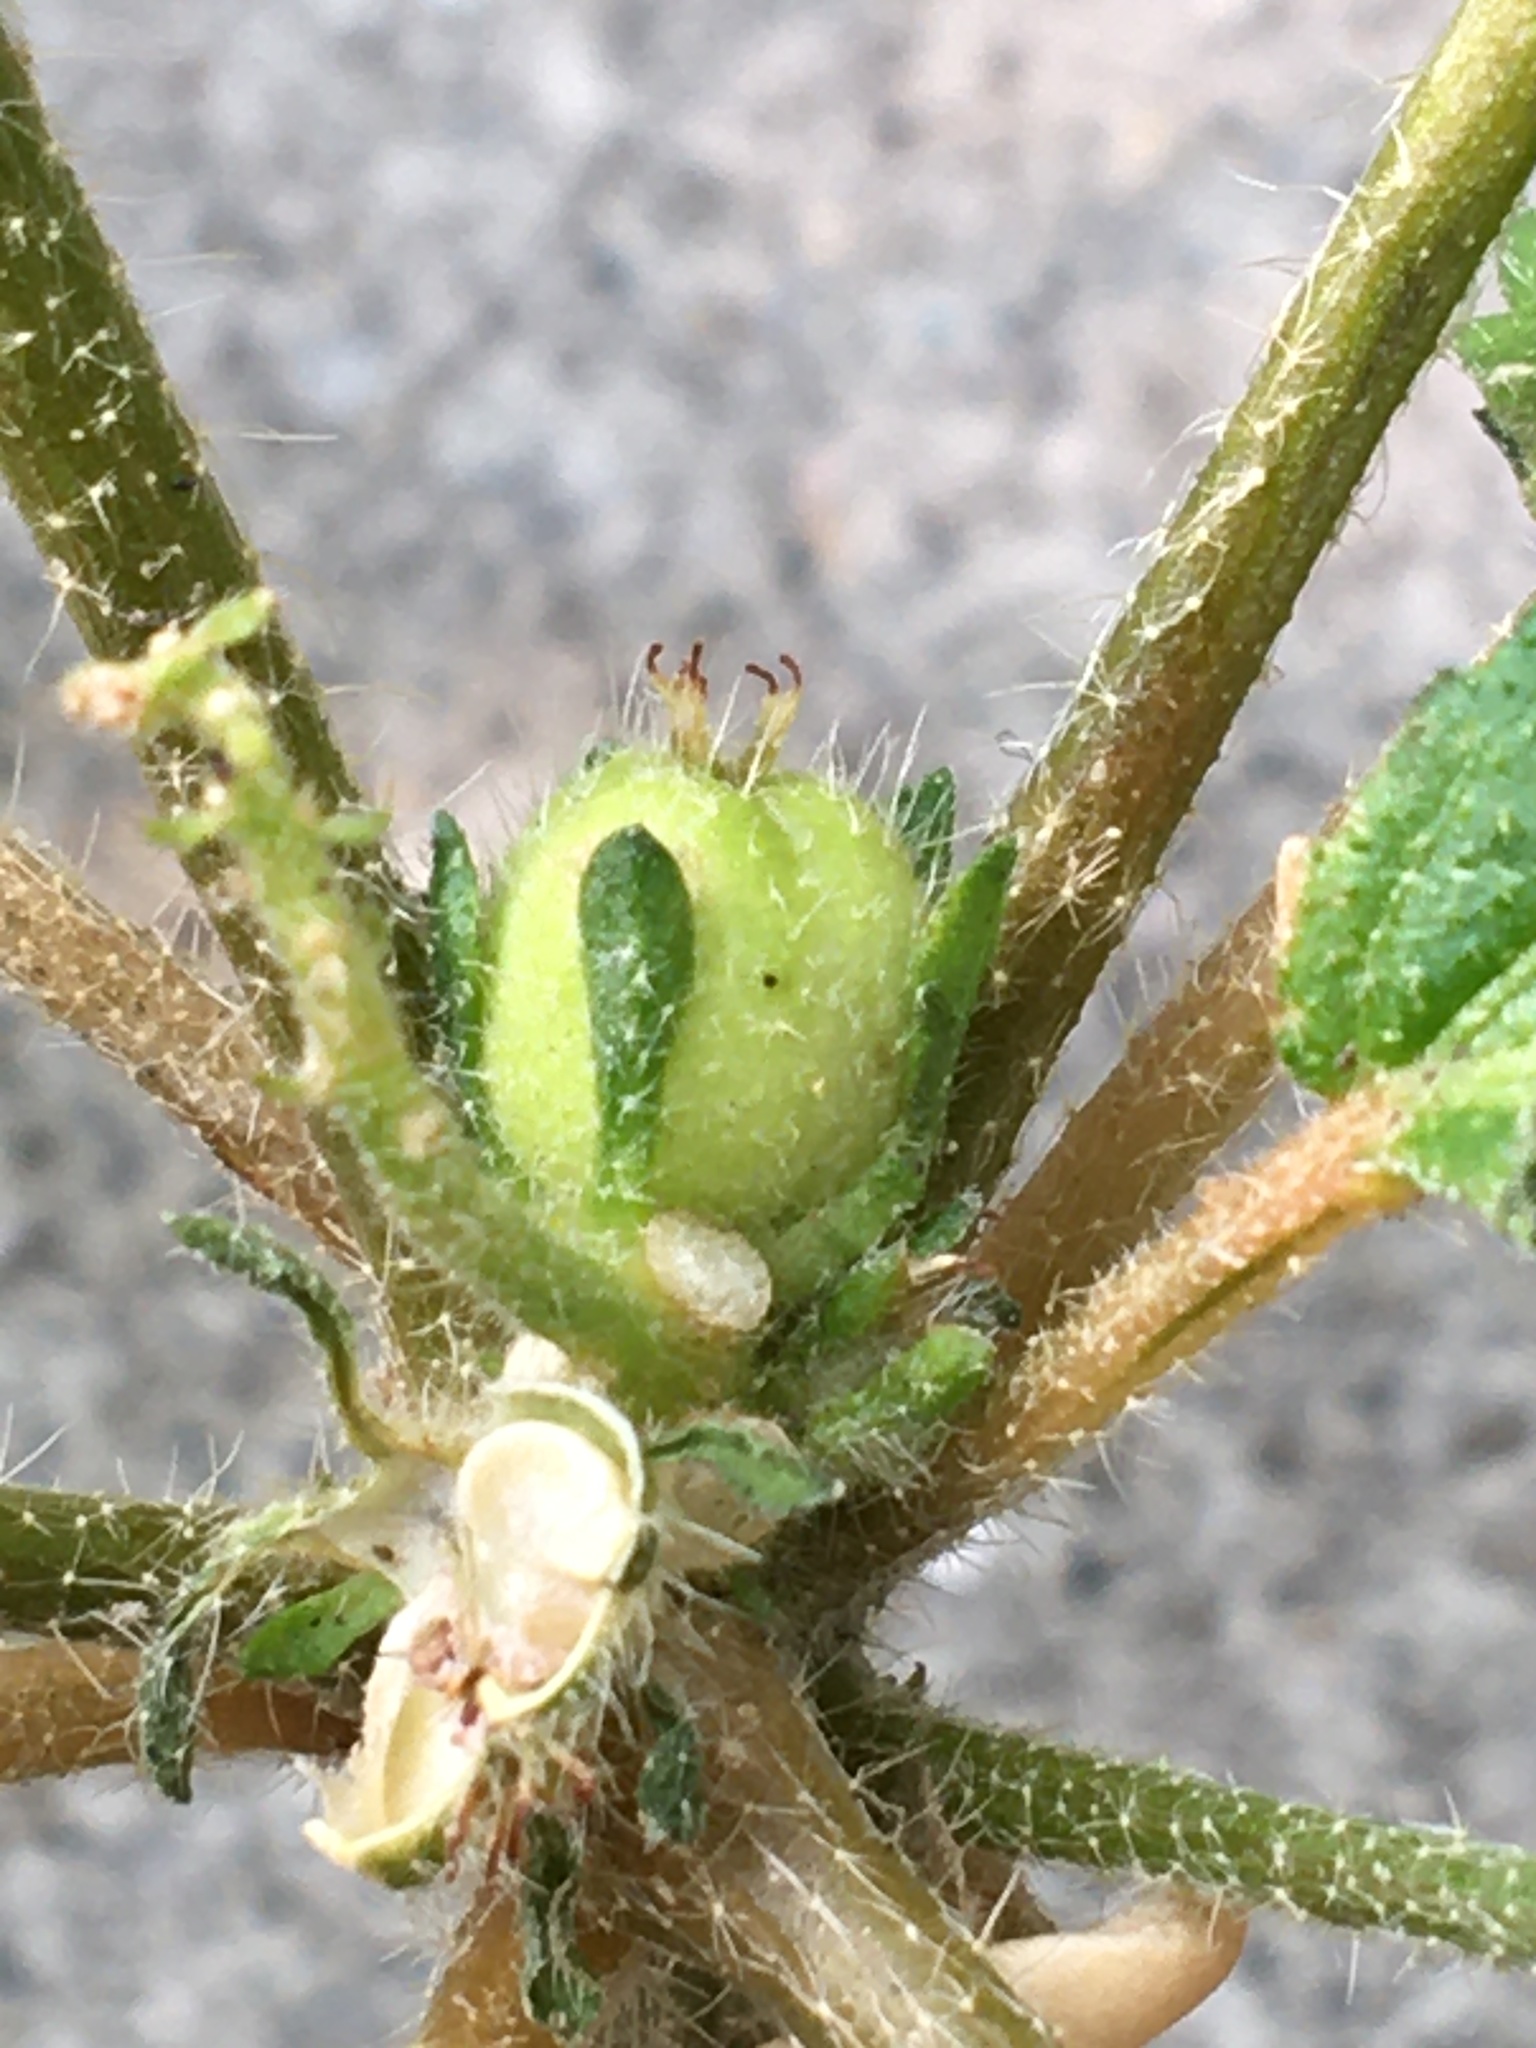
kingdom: Plantae
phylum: Tracheophyta
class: Magnoliopsida
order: Malpighiales
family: Euphorbiaceae
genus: Croton
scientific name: Croton glandulosus
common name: Tropic croton
